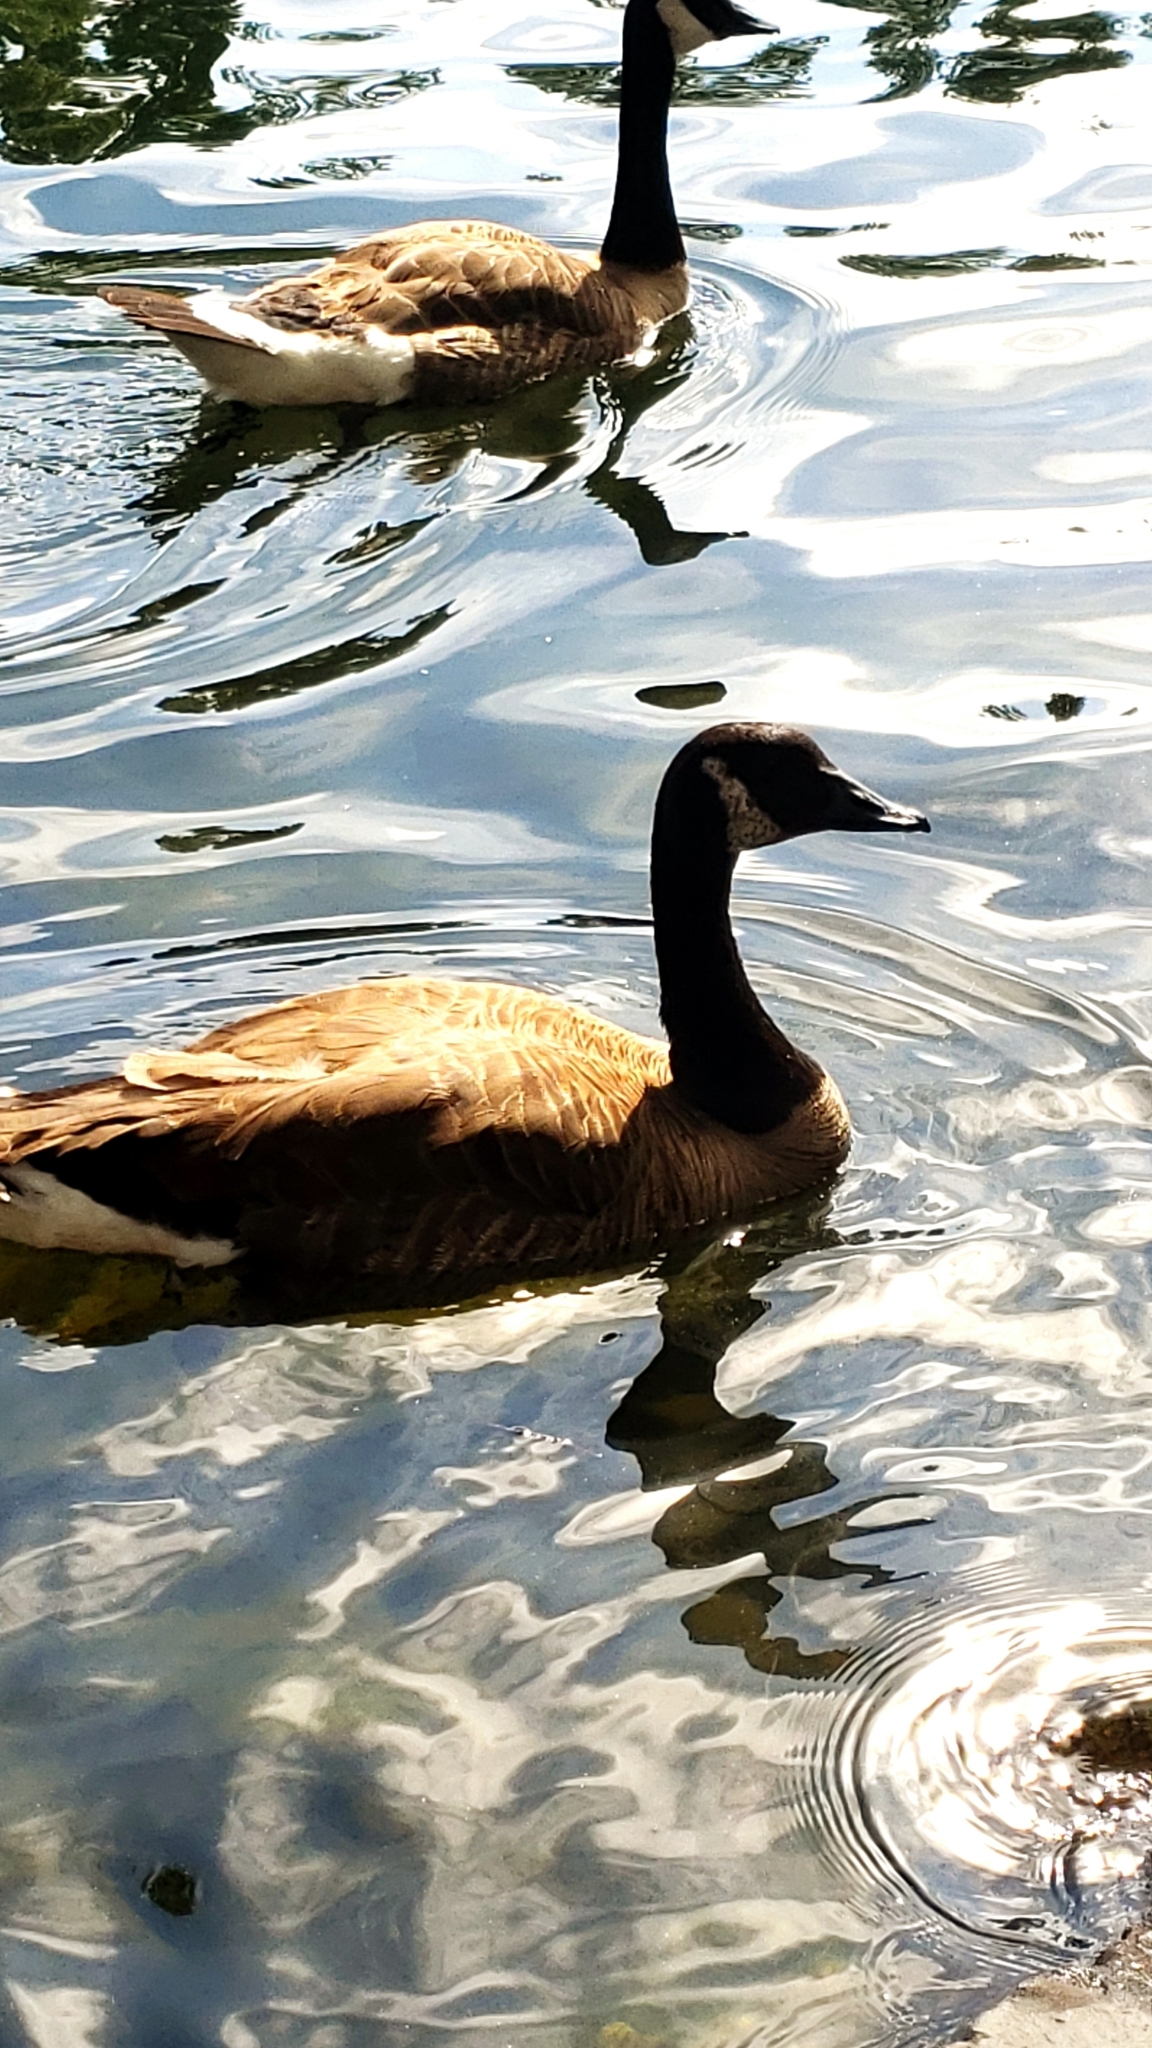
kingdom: Animalia
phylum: Chordata
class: Aves
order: Anseriformes
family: Anatidae
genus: Branta
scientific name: Branta canadensis
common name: Canada goose
